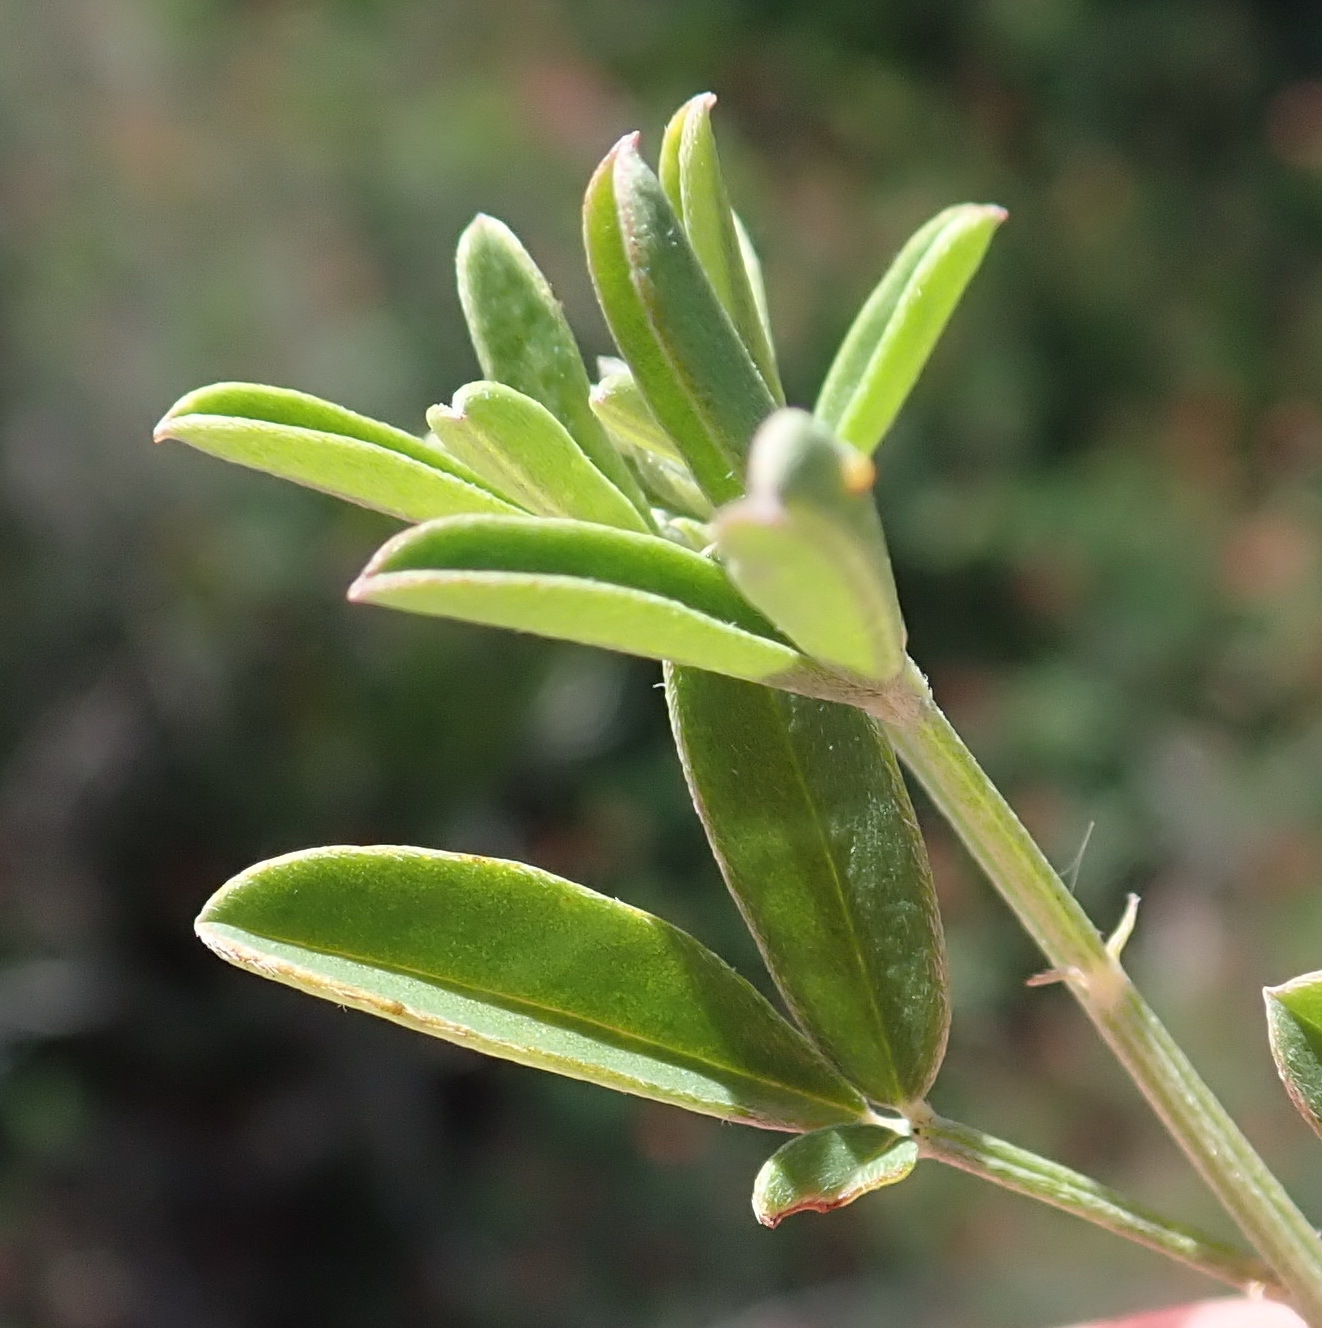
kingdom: Plantae
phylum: Tracheophyta
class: Magnoliopsida
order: Fabales
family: Fabaceae
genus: Indigofera
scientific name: Indigofera candicans
